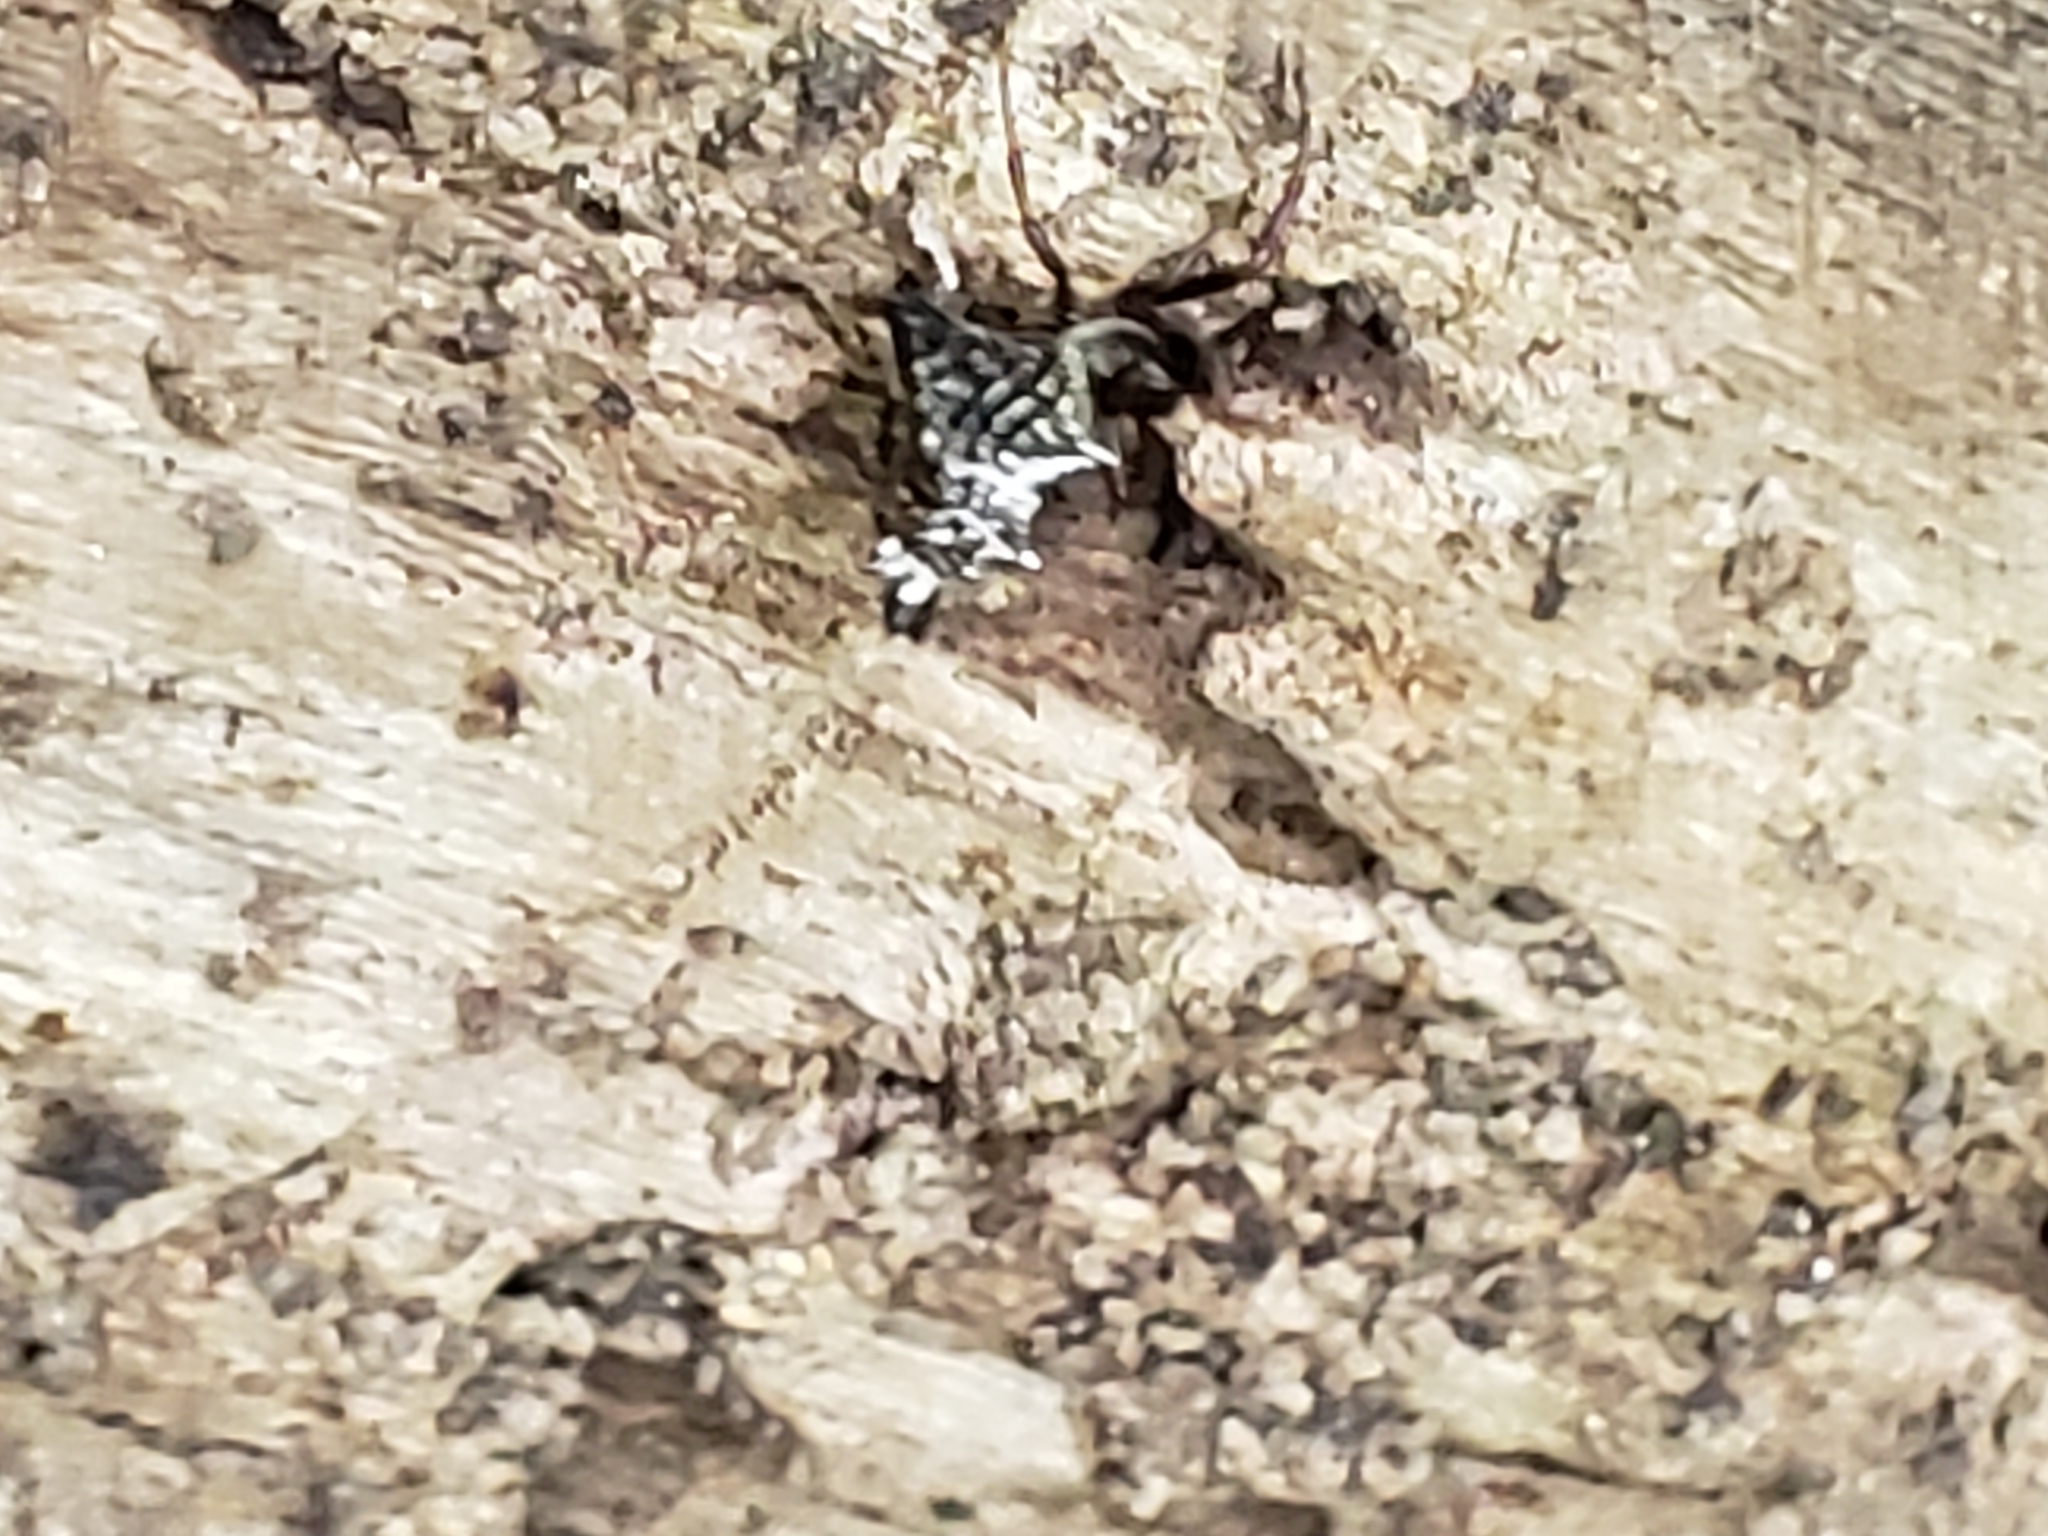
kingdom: Animalia
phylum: Arthropoda
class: Arachnida
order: Araneae
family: Araneidae
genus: Micrathena
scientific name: Micrathena gracilis
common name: Orb weavers
